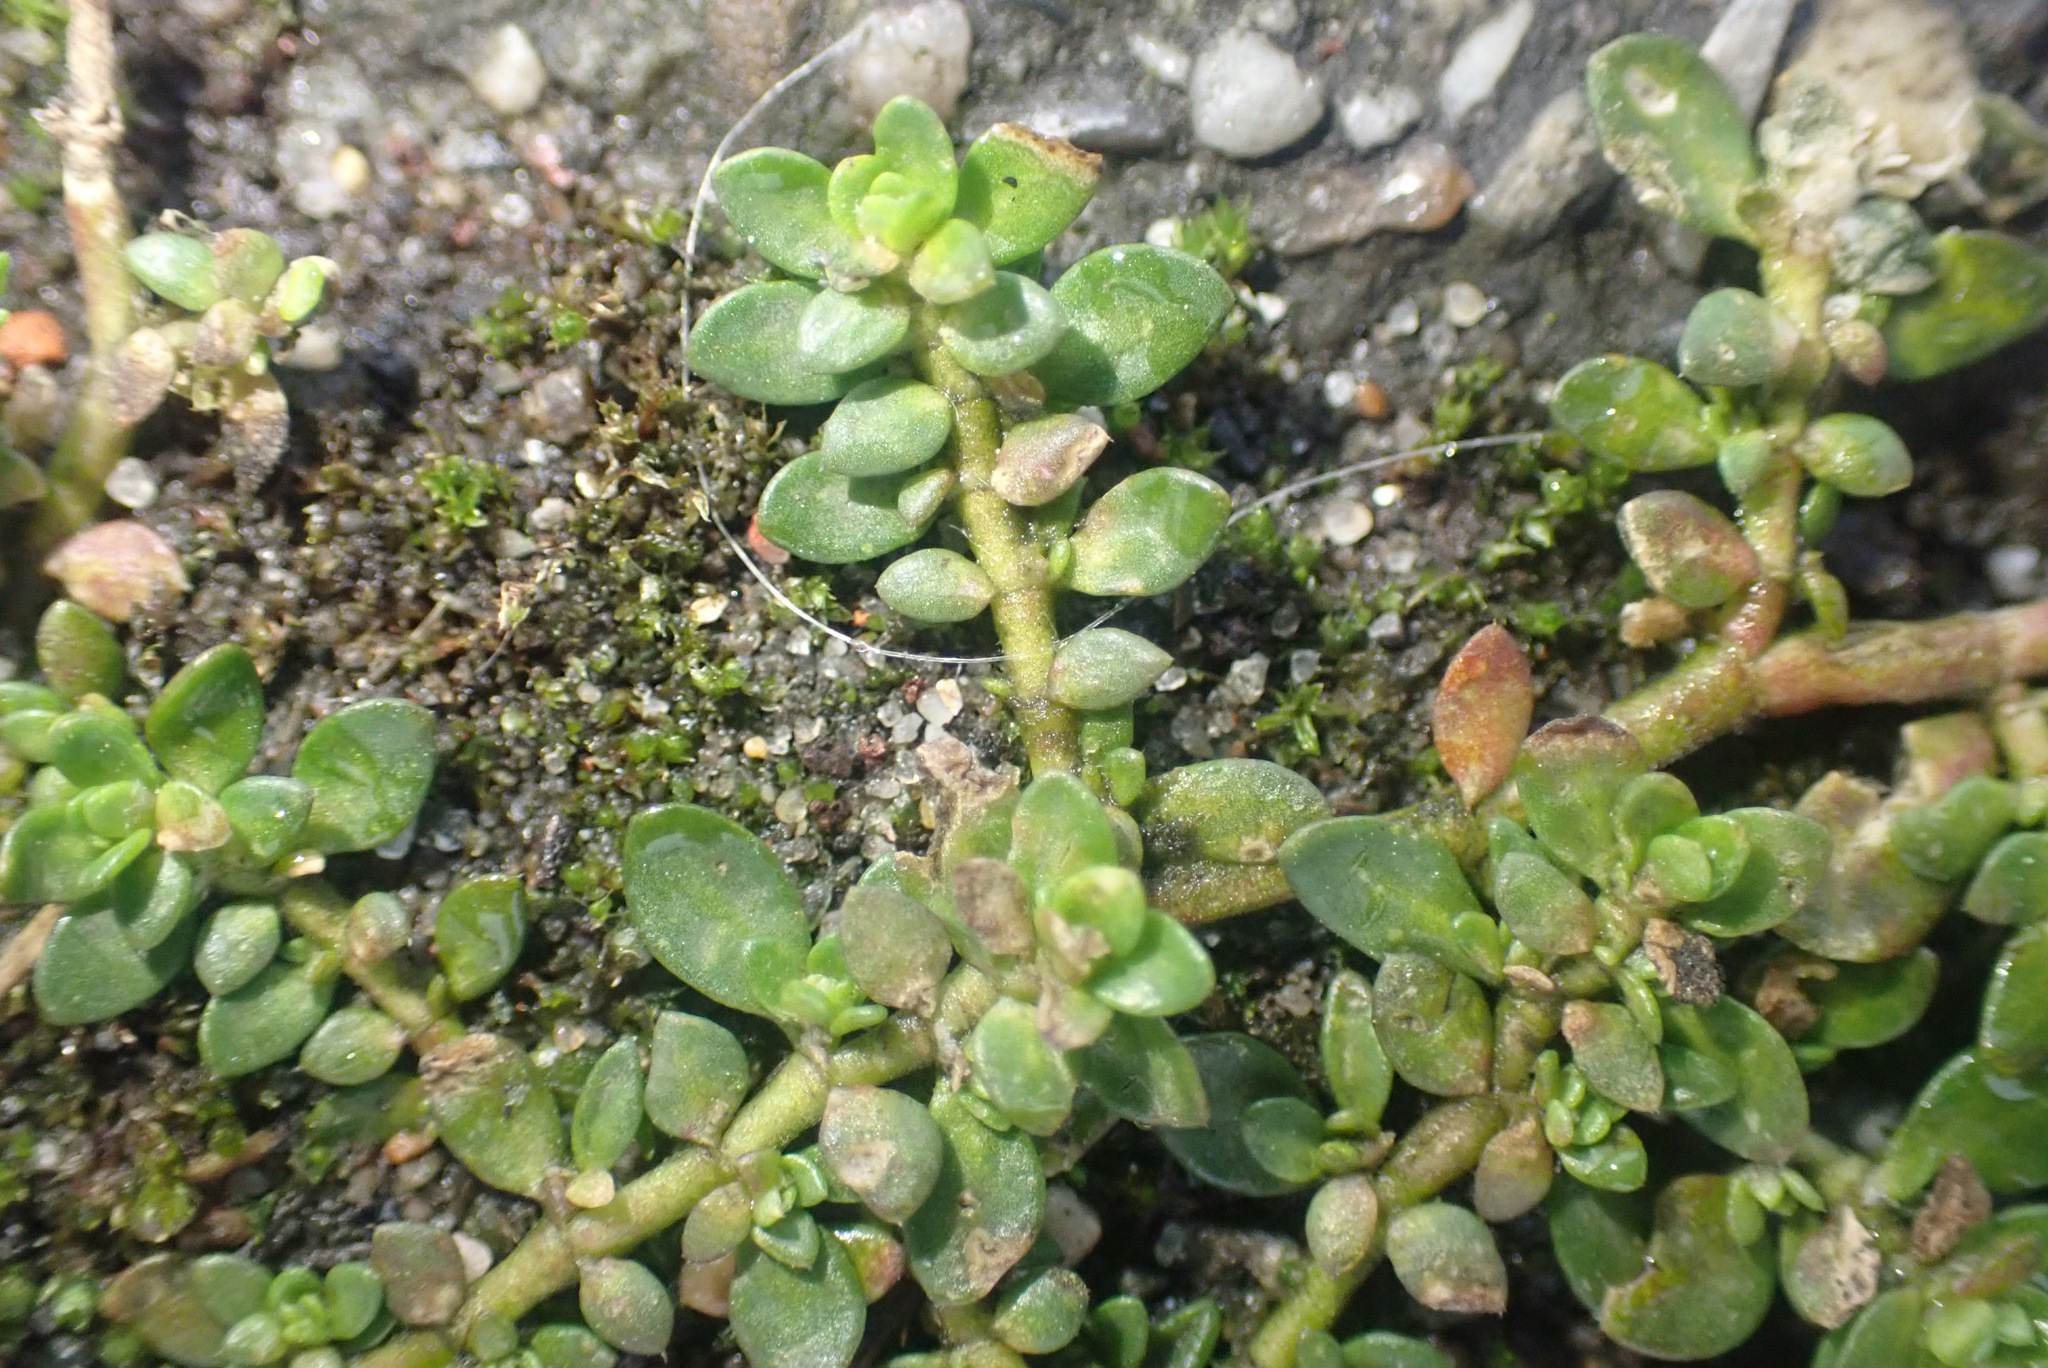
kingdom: Plantae
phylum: Tracheophyta
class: Magnoliopsida
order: Caryophyllales
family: Caryophyllaceae
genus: Herniaria
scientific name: Herniaria glabra
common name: Smooth rupturewort
